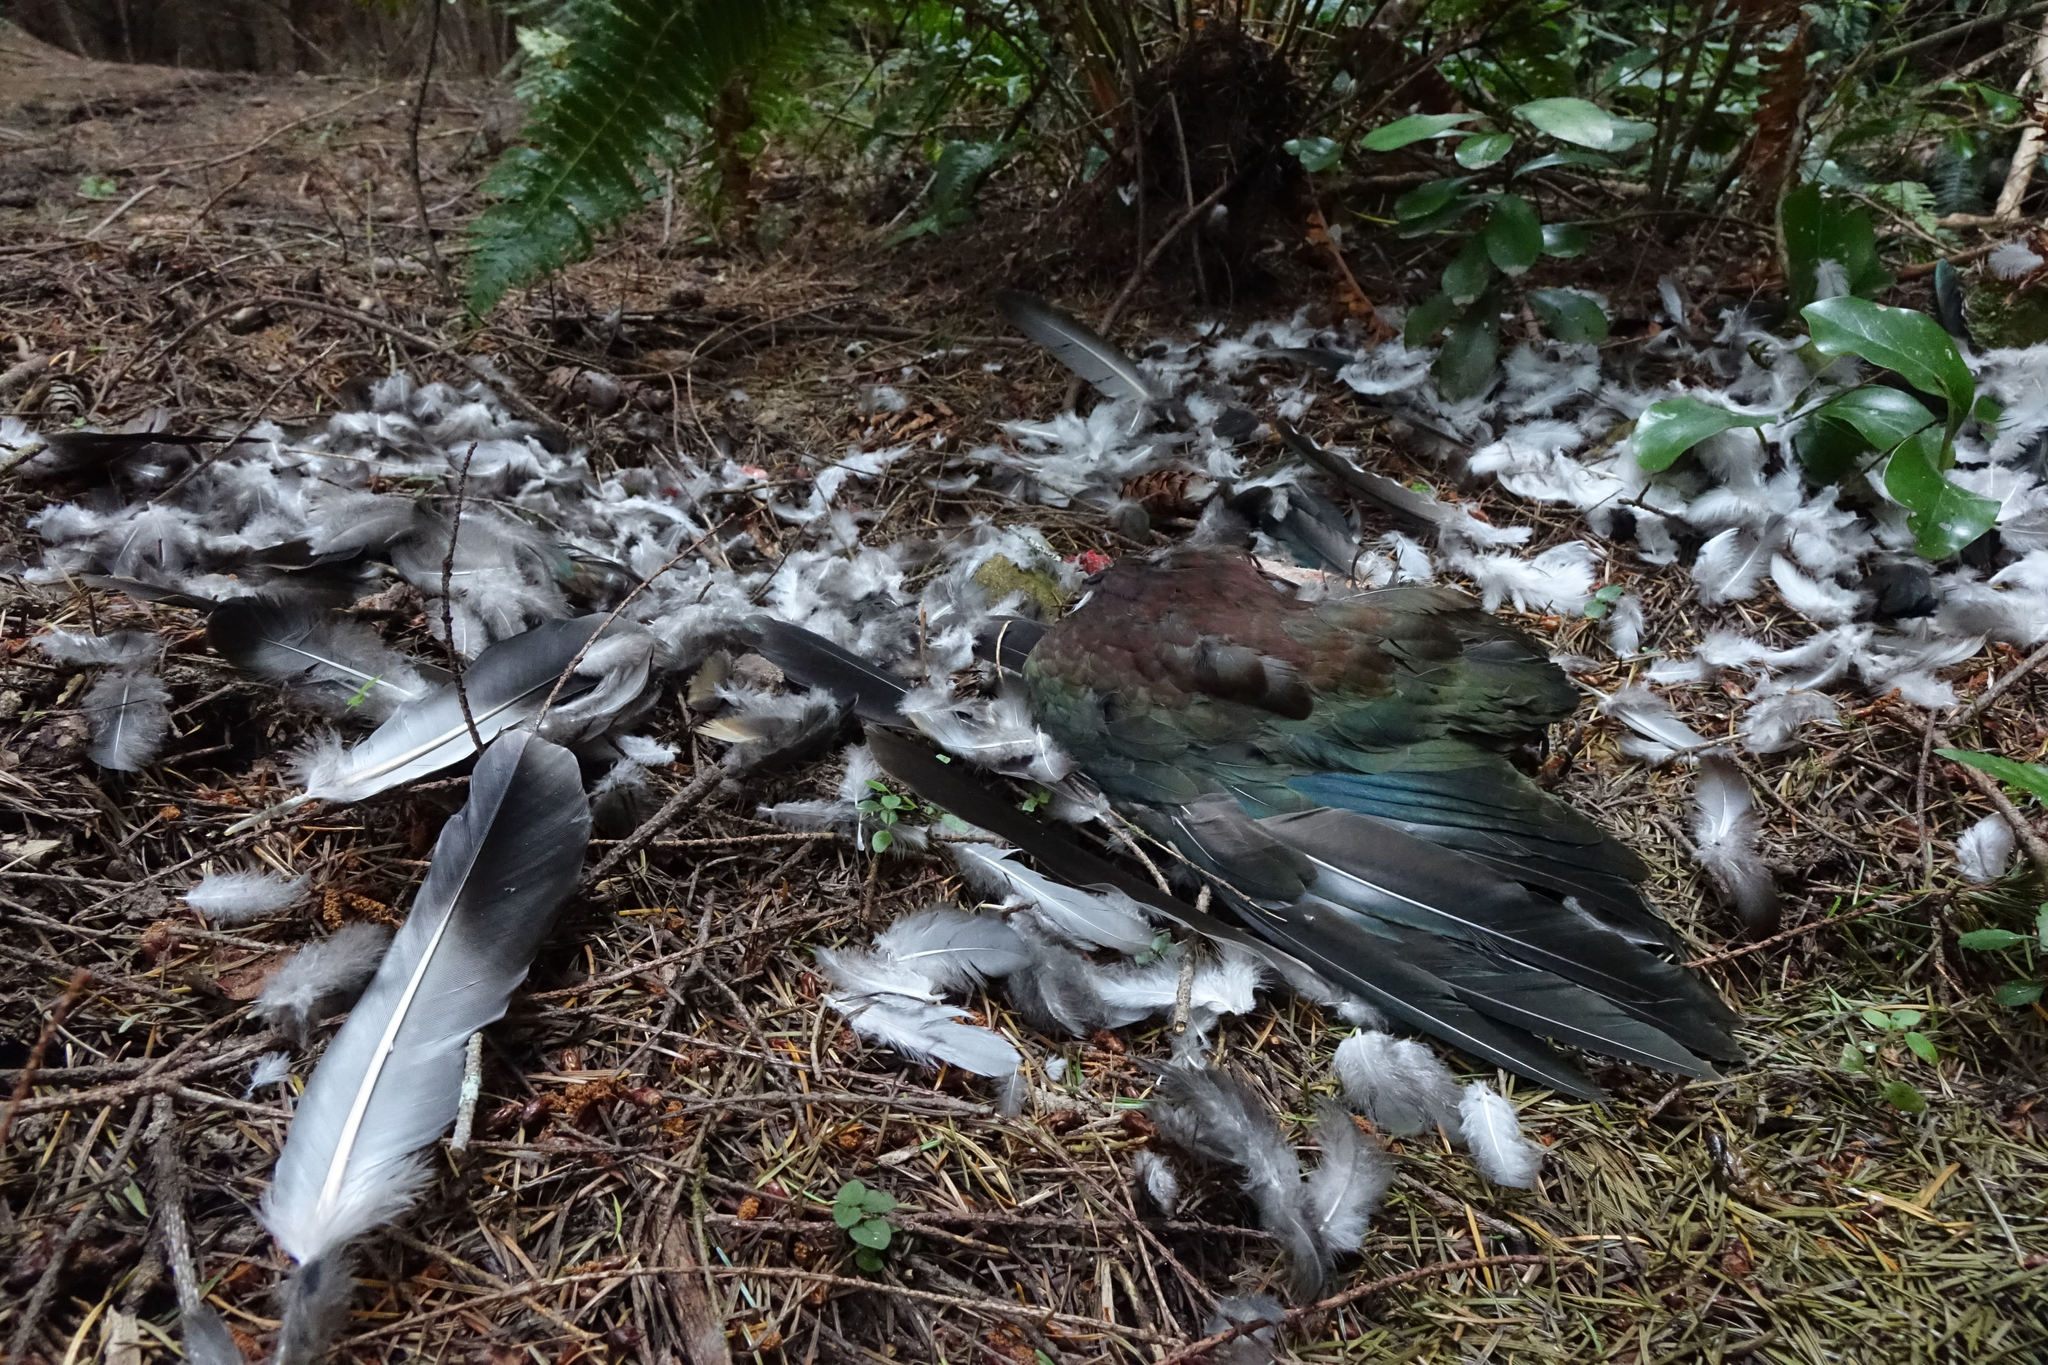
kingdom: Animalia
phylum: Chordata
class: Aves
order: Columbiformes
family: Columbidae
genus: Hemiphaga
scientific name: Hemiphaga novaeseelandiae
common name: New zealand pigeon
